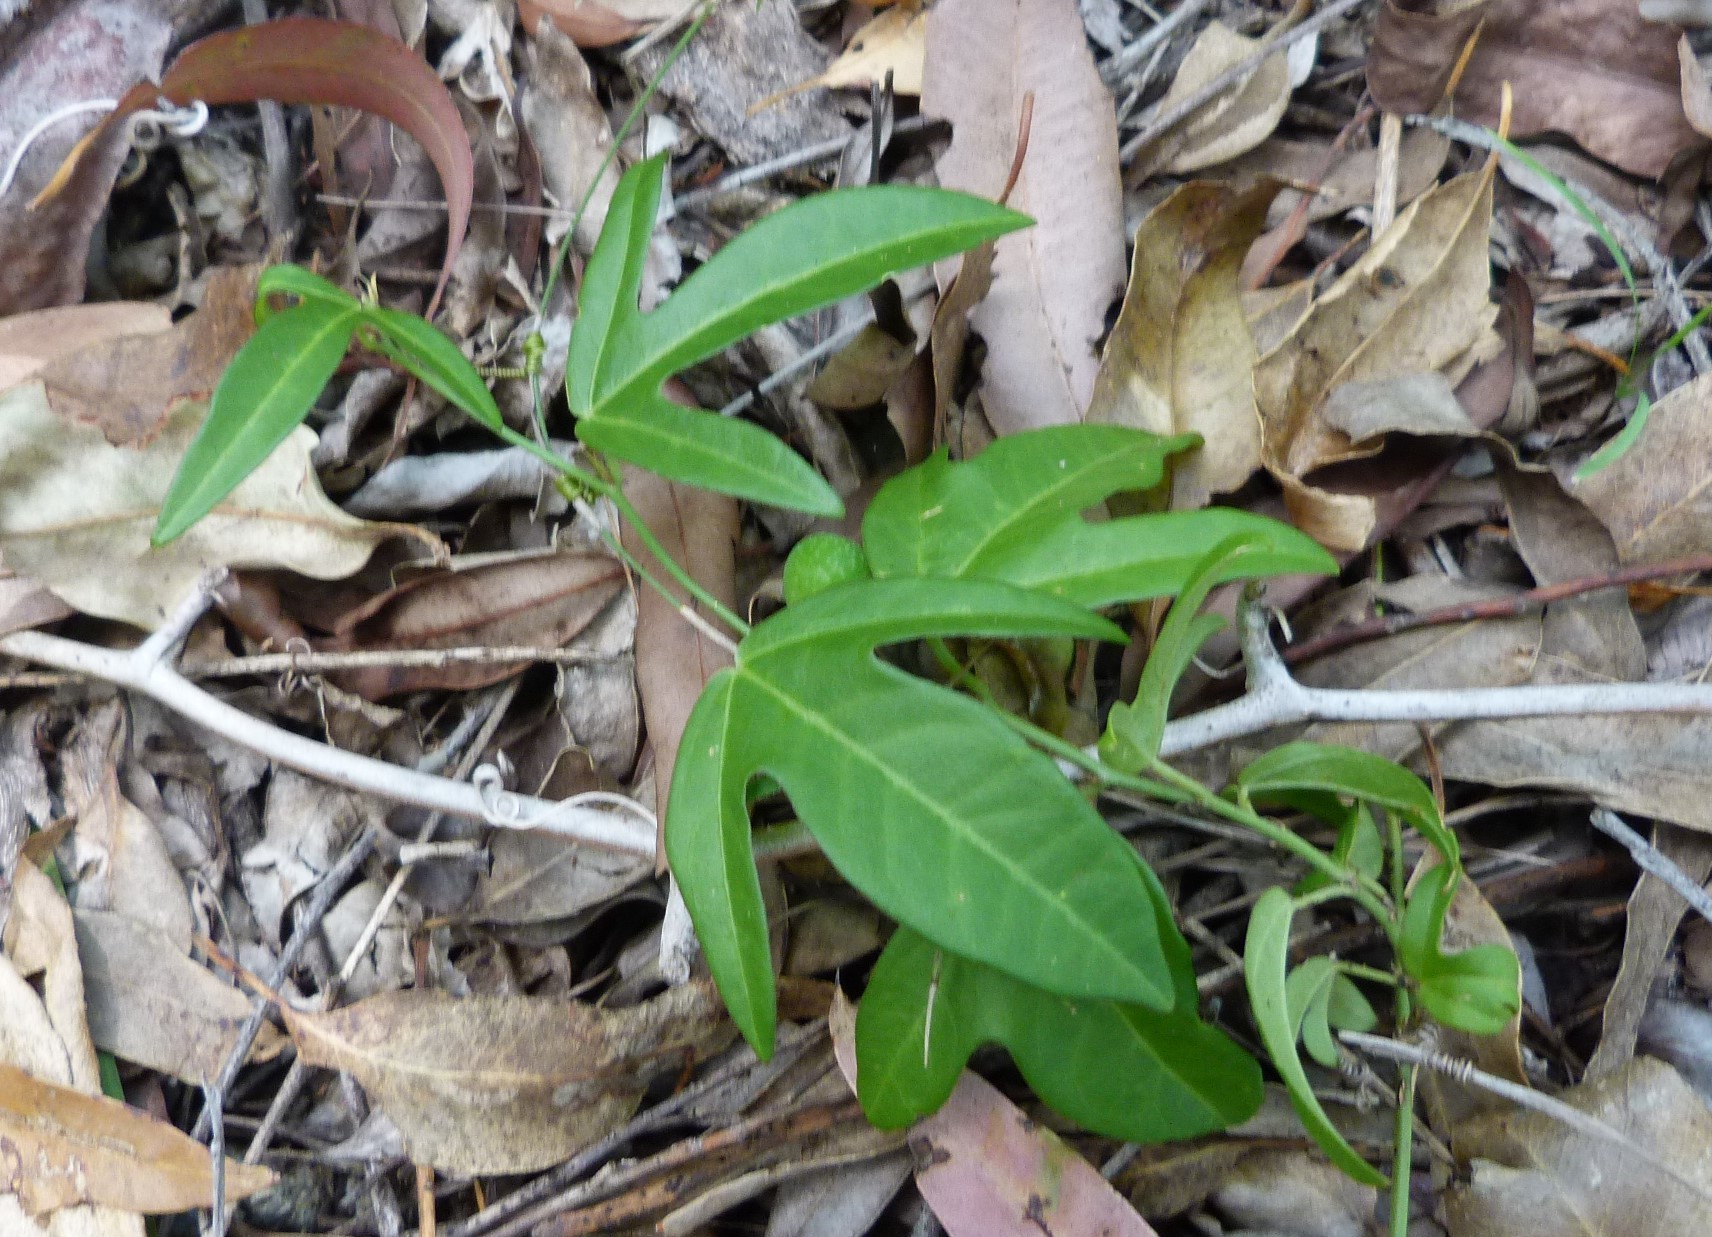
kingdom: Plantae
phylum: Tracheophyta
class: Magnoliopsida
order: Malpighiales
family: Passifloraceae
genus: Passiflora
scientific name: Passiflora suberosa
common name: Wild passionfruit
